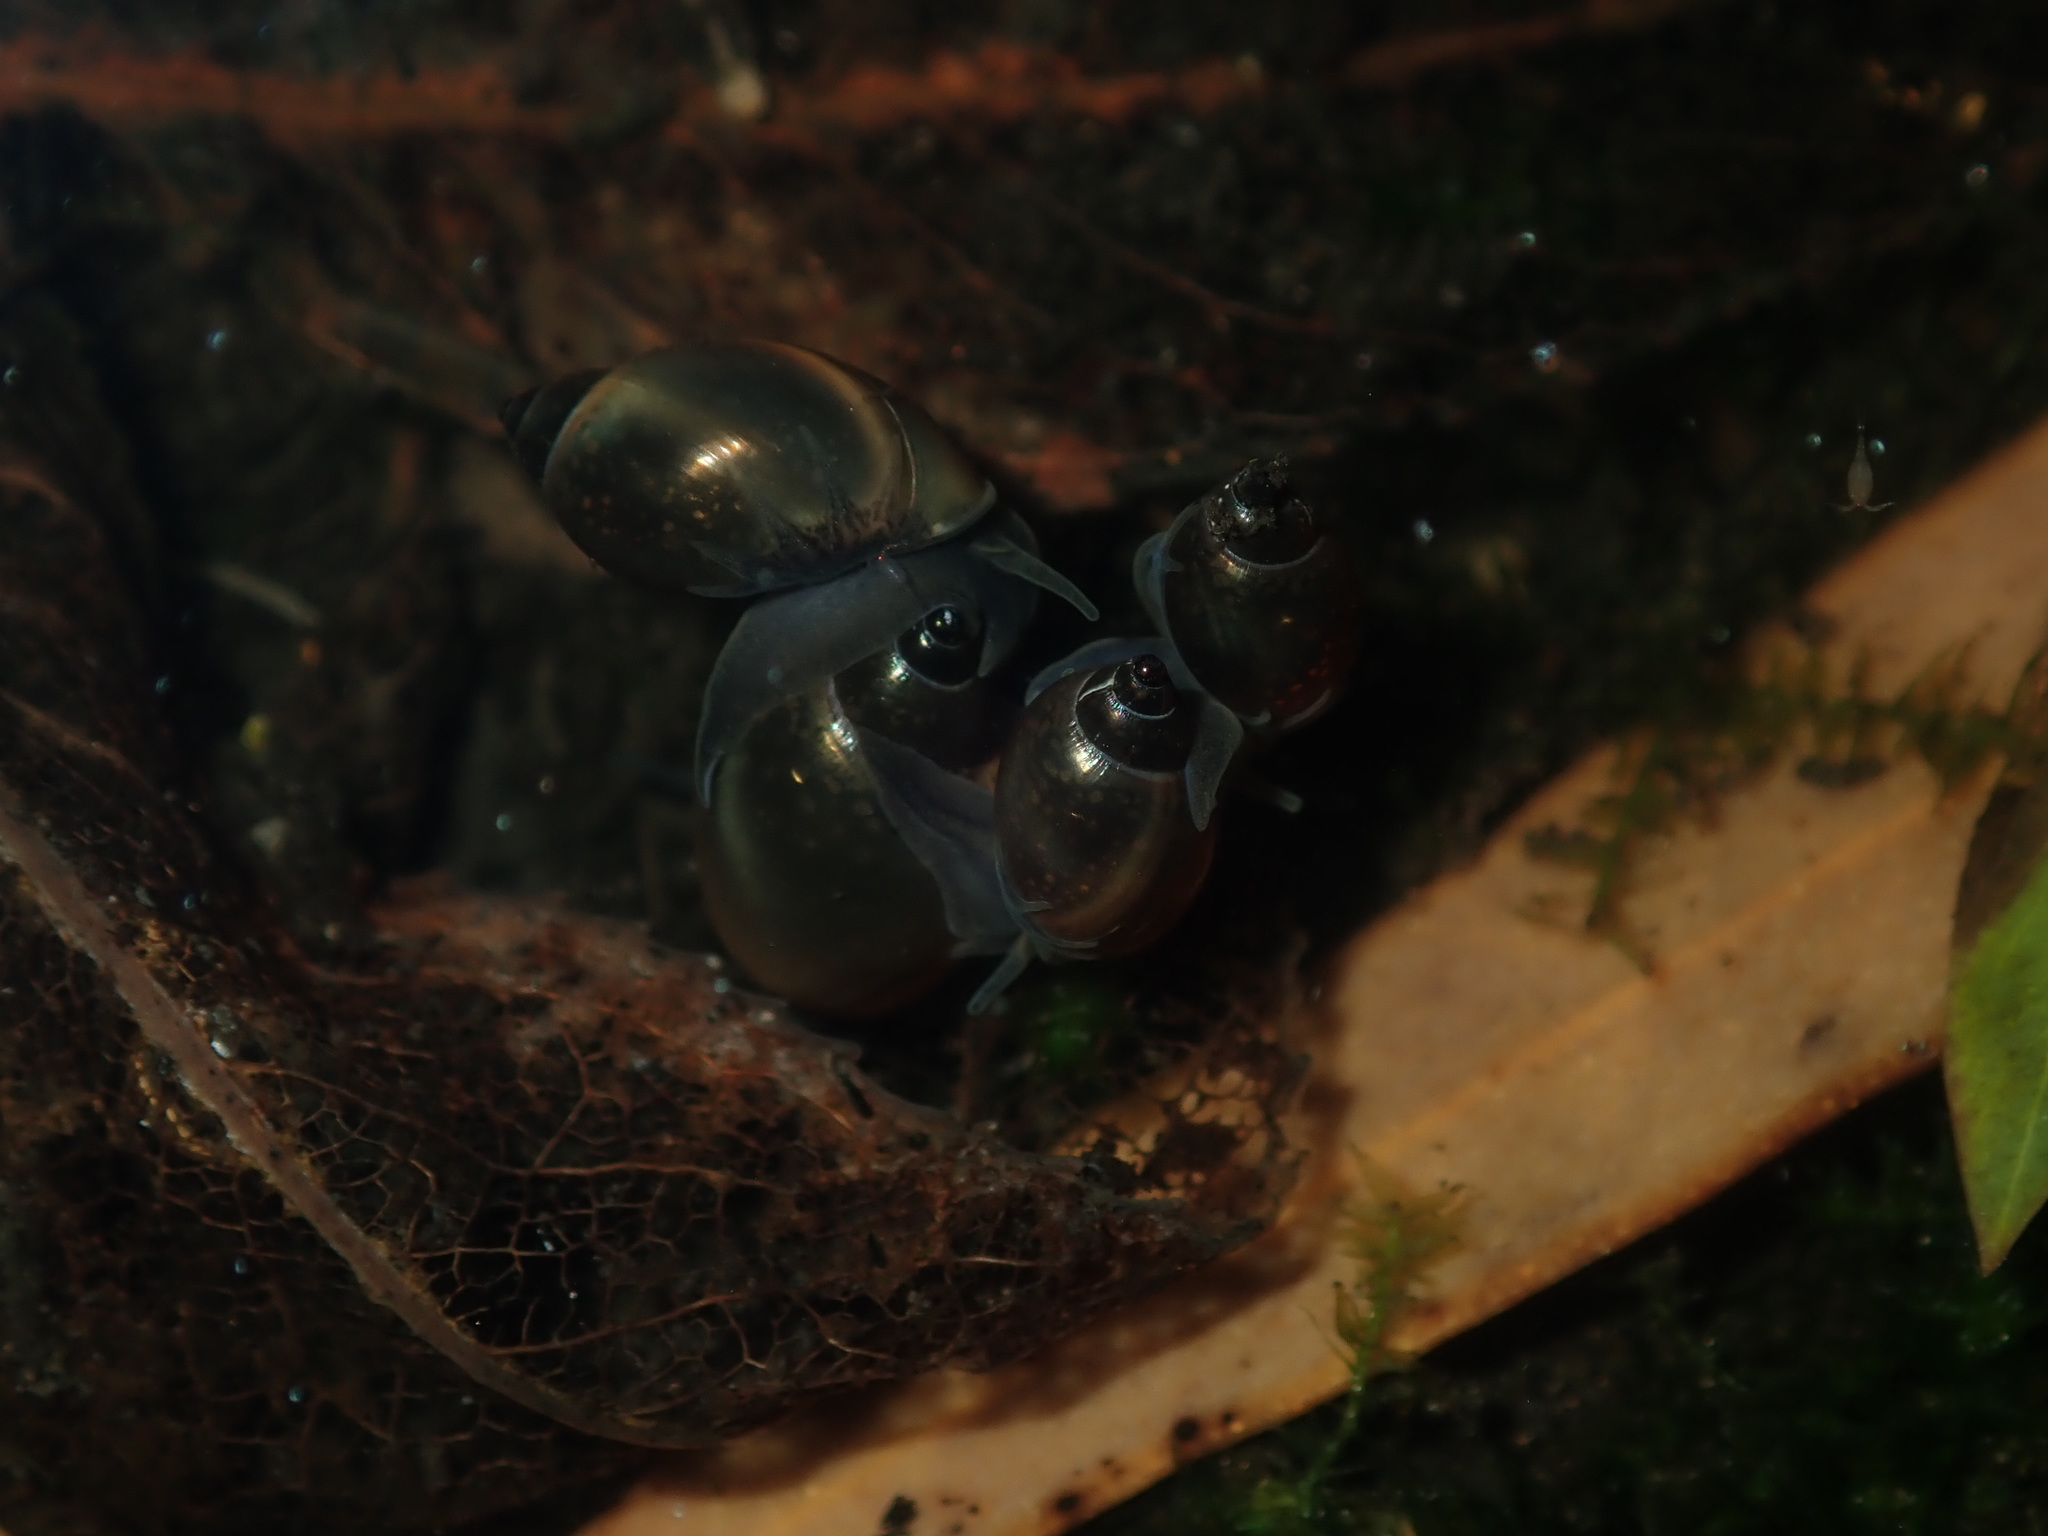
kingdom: Animalia
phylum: Mollusca
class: Gastropoda
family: Physidae
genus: Physella
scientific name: Physella acuta
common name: European physa
